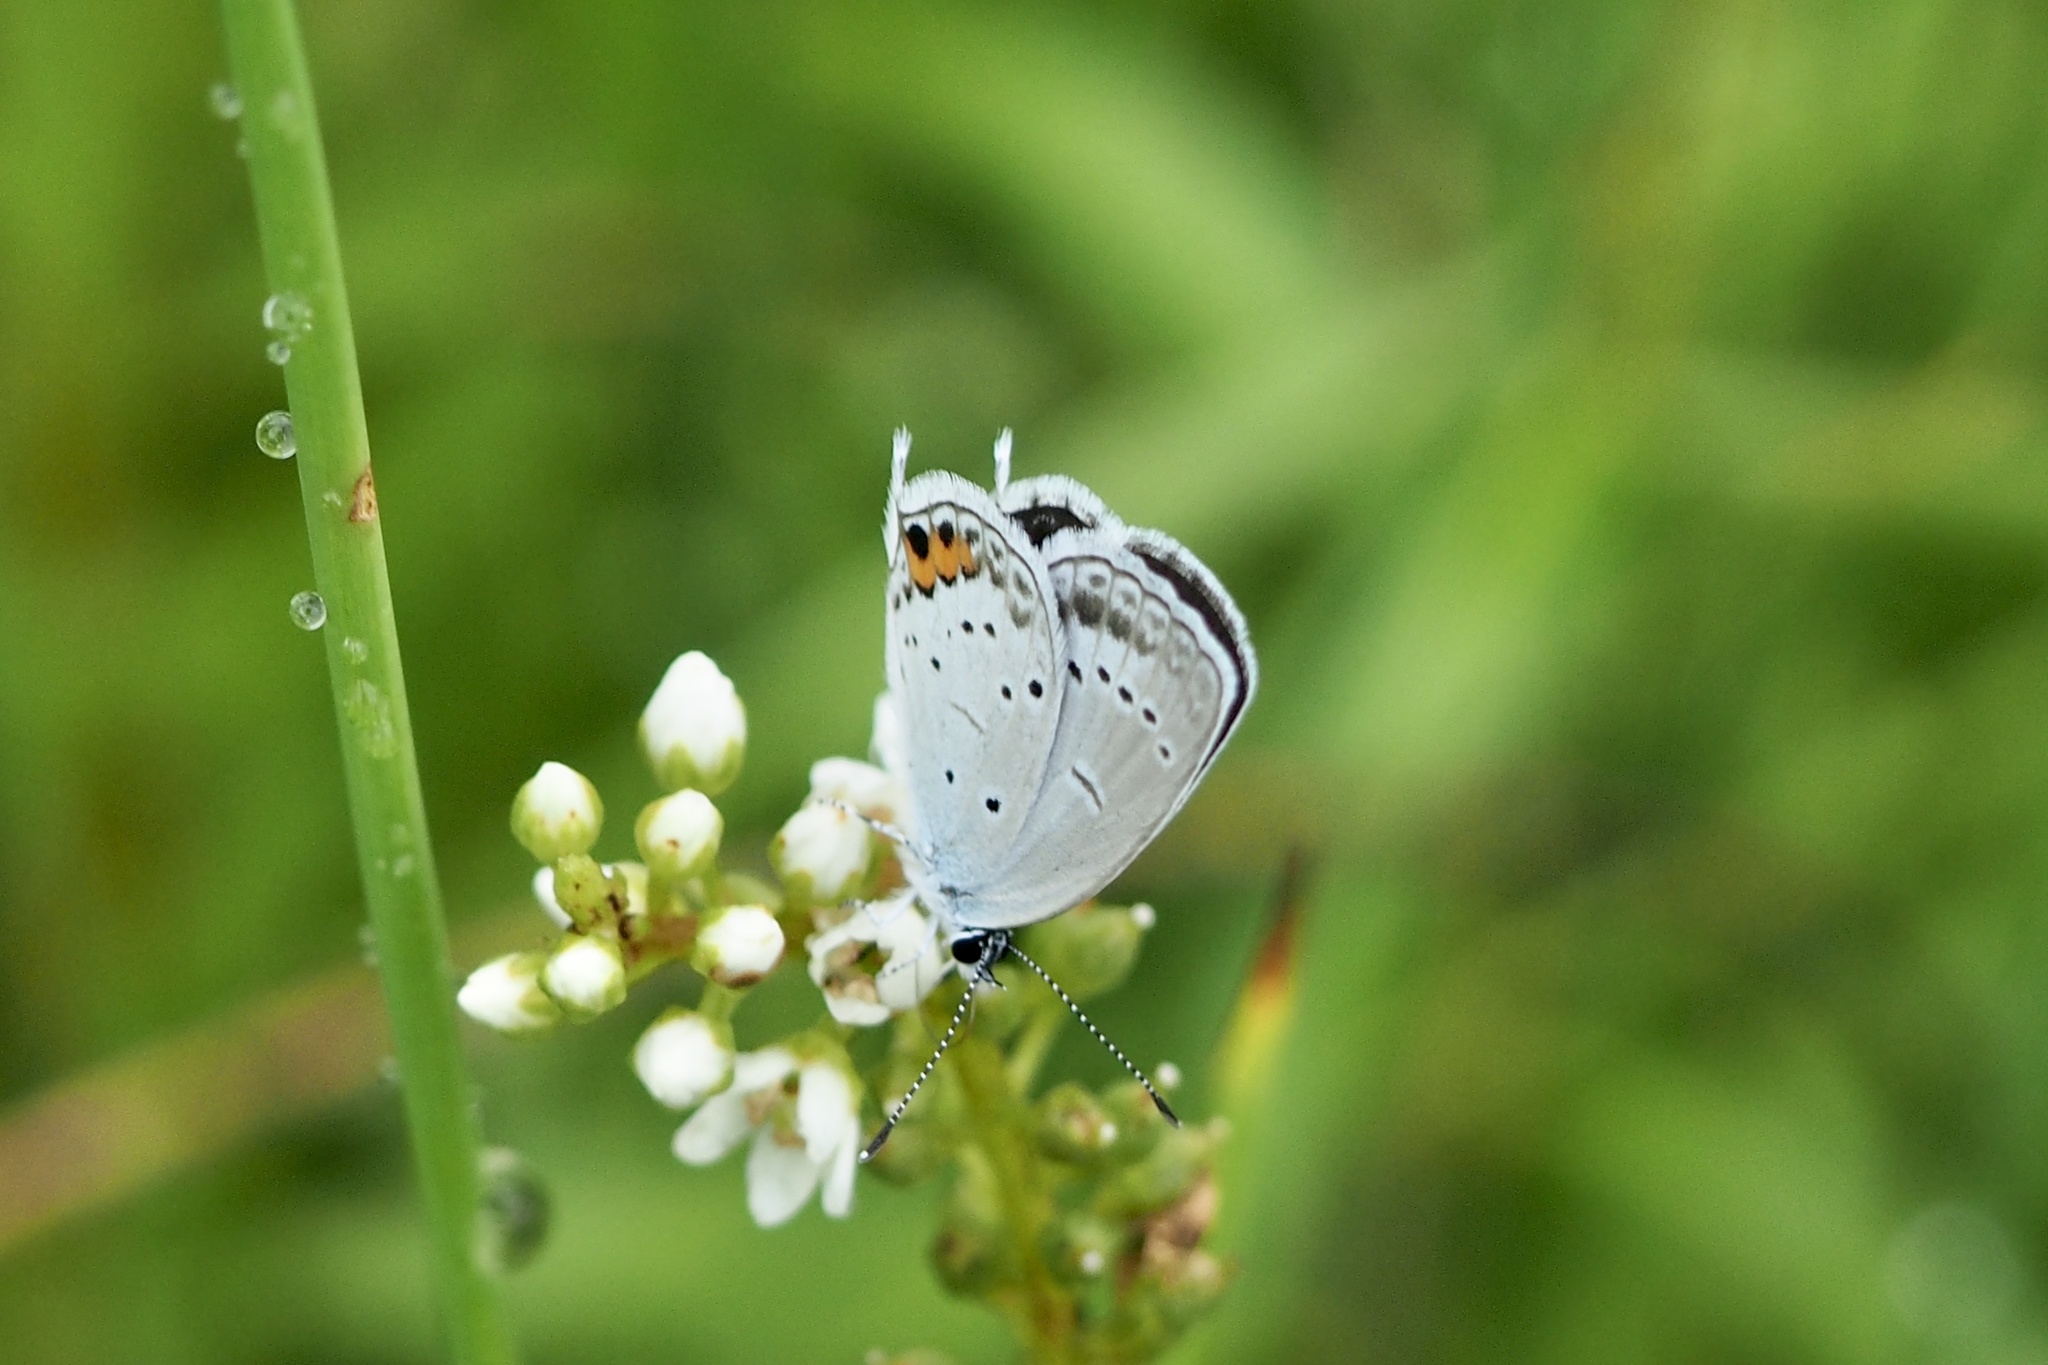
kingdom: Animalia
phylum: Arthropoda
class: Insecta
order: Lepidoptera
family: Lycaenidae
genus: Elkalyce
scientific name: Elkalyce argiades
